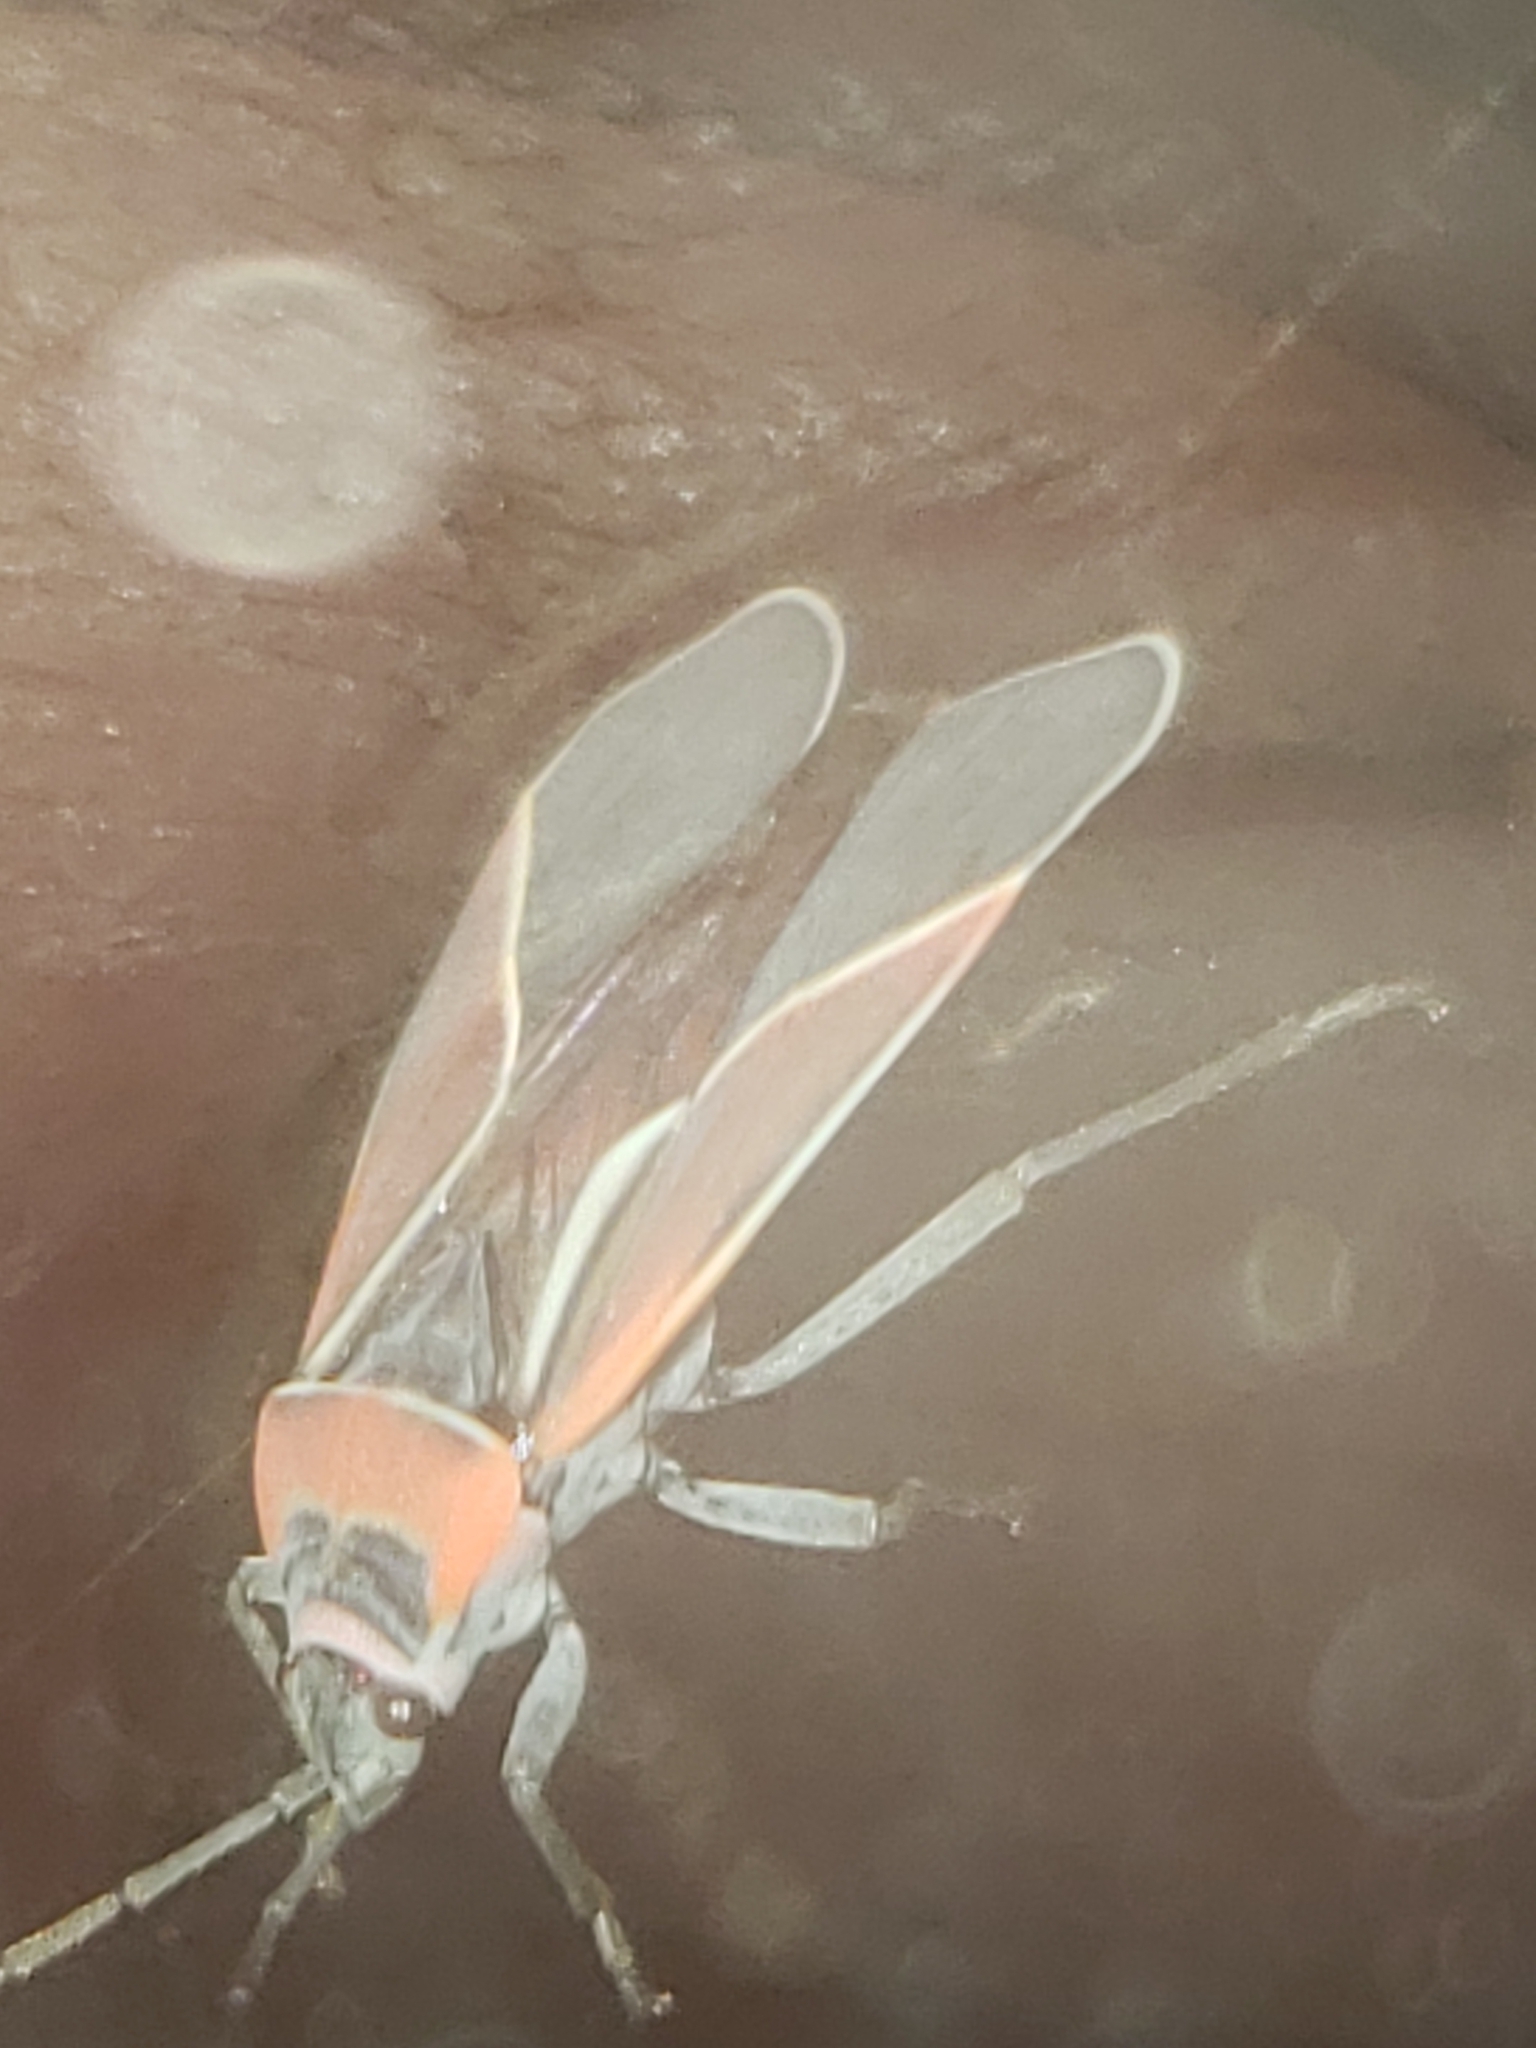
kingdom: Animalia
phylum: Arthropoda
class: Insecta
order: Hemiptera
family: Lygaeidae
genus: Neacoryphus
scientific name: Neacoryphus bicrucis
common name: Lygaeid bug
